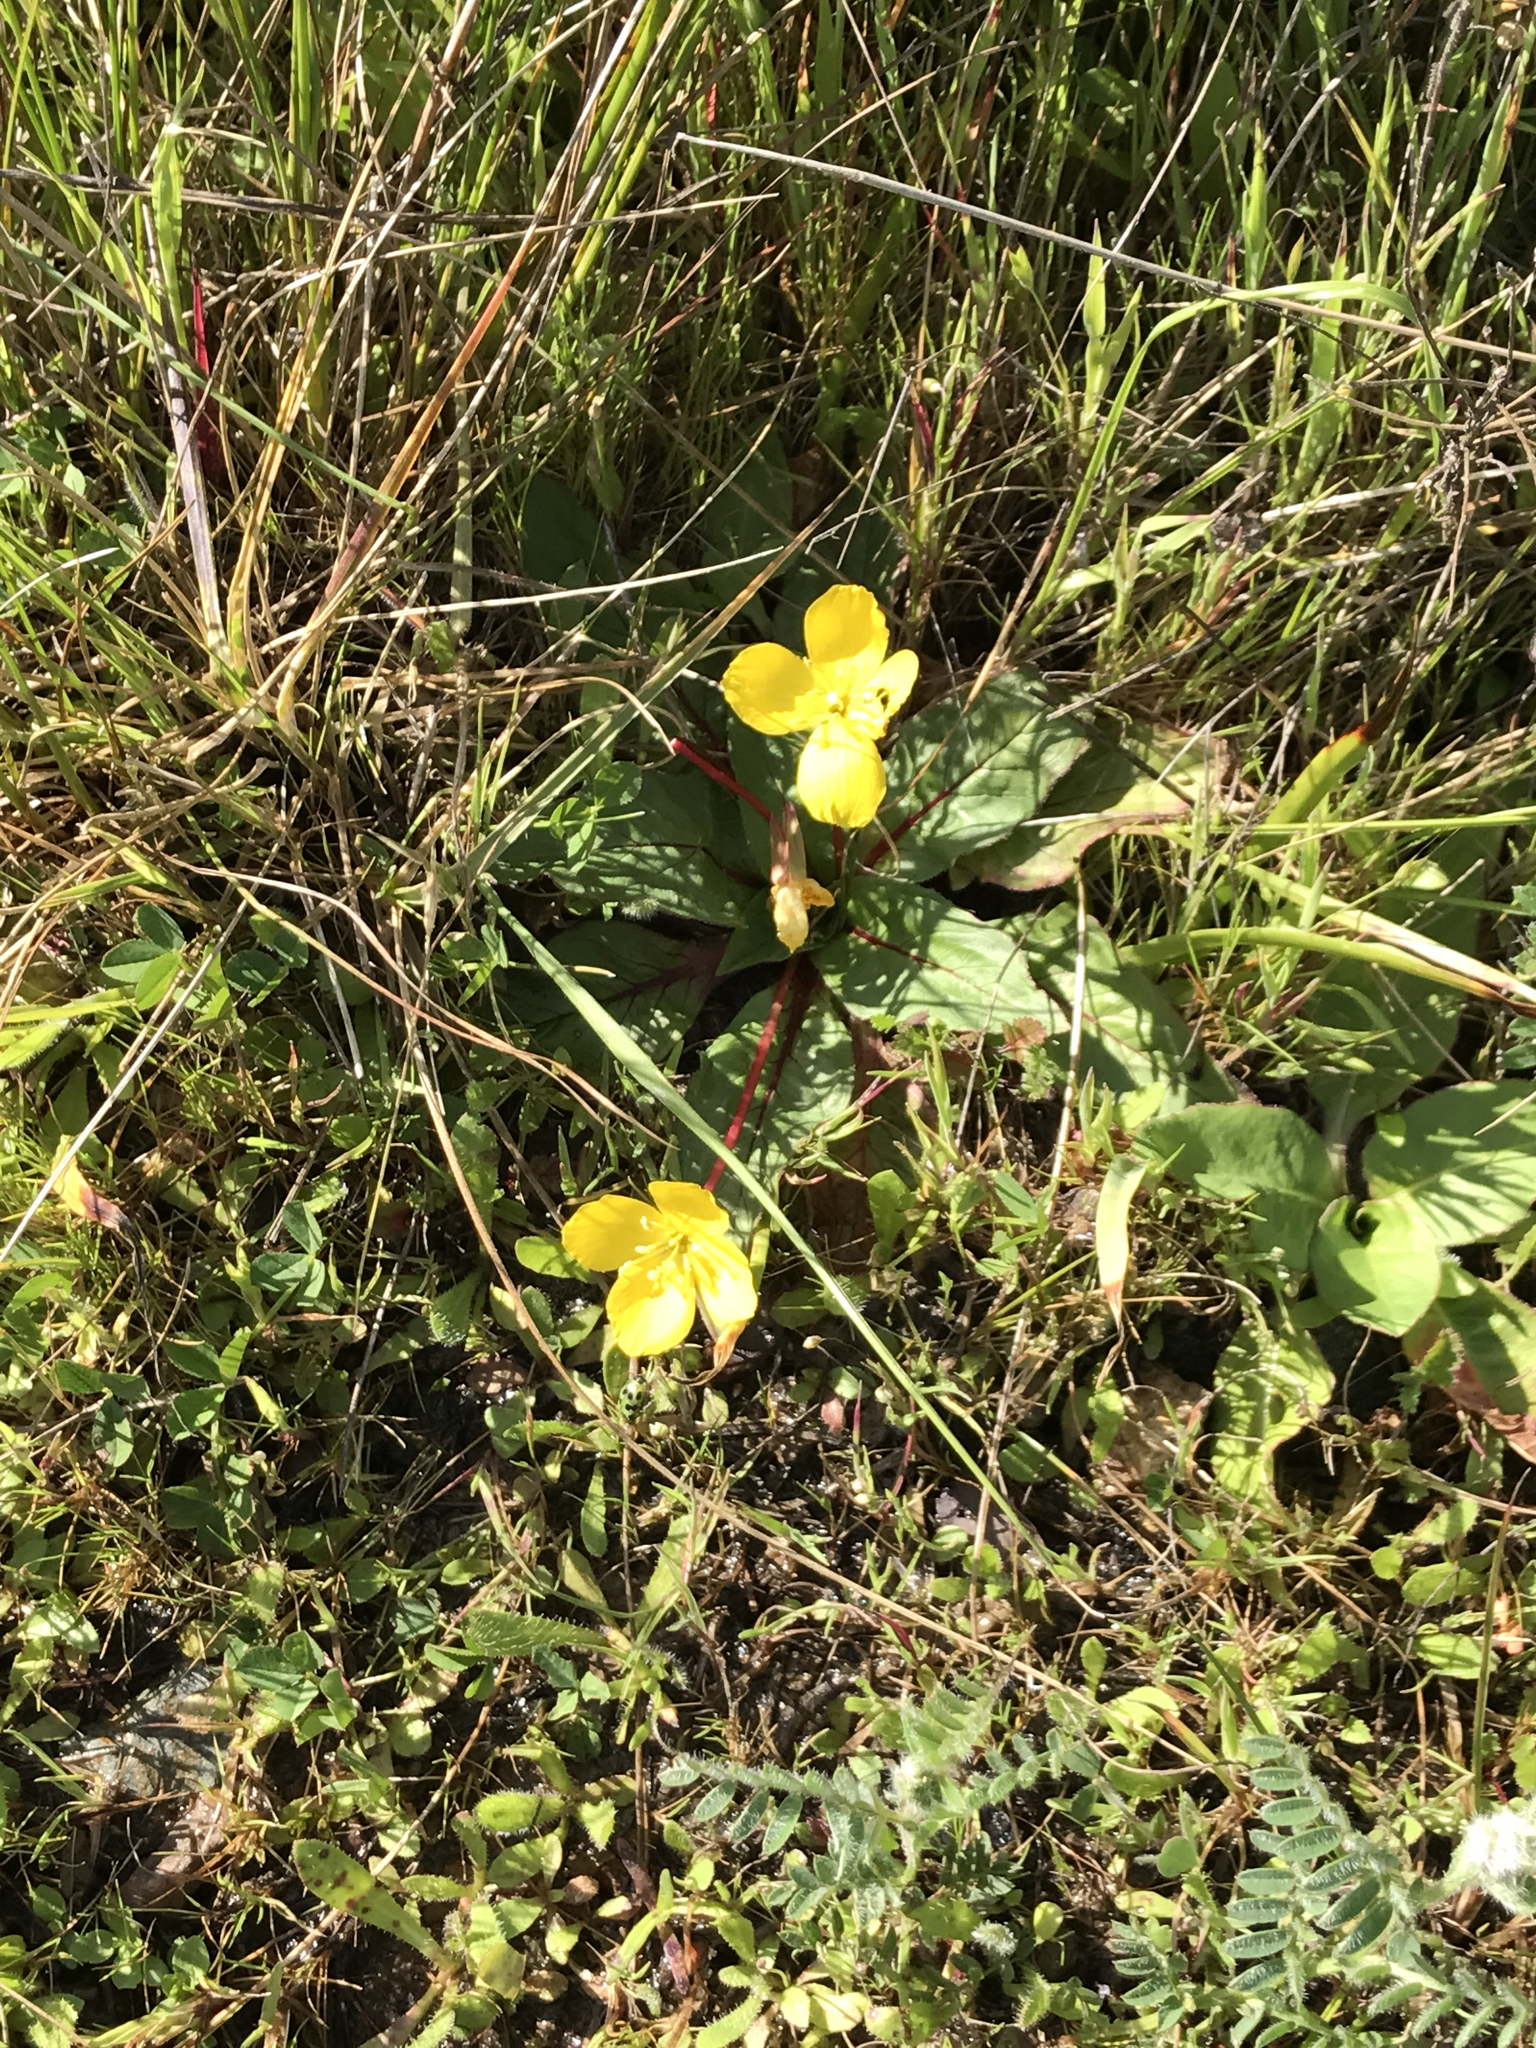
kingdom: Plantae
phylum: Tracheophyta
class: Magnoliopsida
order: Myrtales
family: Onagraceae
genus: Taraxia
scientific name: Taraxia ovata
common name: Goldeneggs
